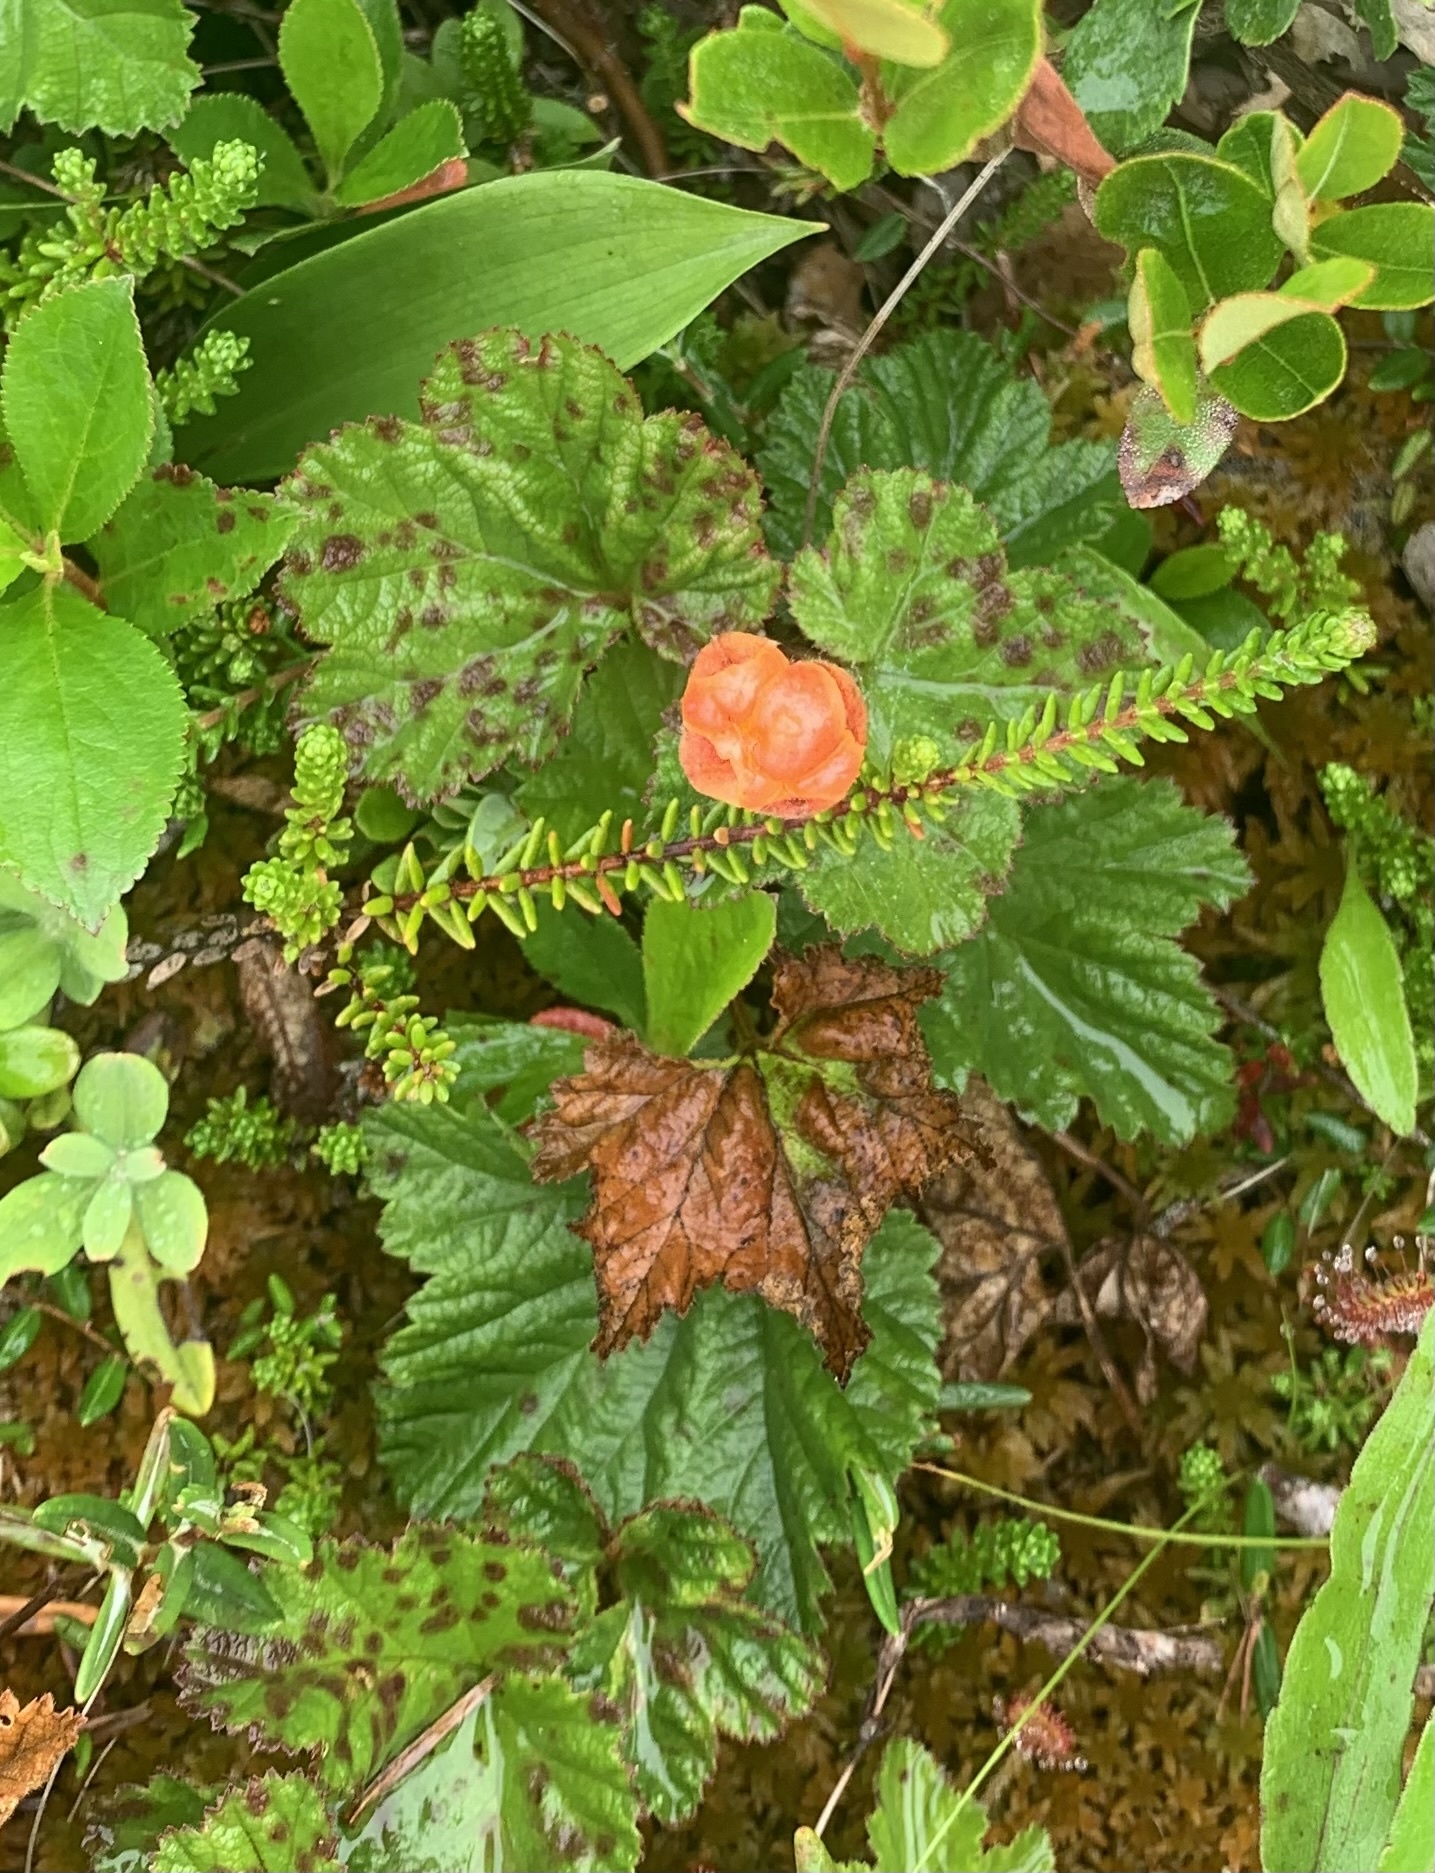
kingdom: Plantae
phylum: Tracheophyta
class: Magnoliopsida
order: Rosales
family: Rosaceae
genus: Rubus
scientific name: Rubus chamaemorus
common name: Cloudberry
